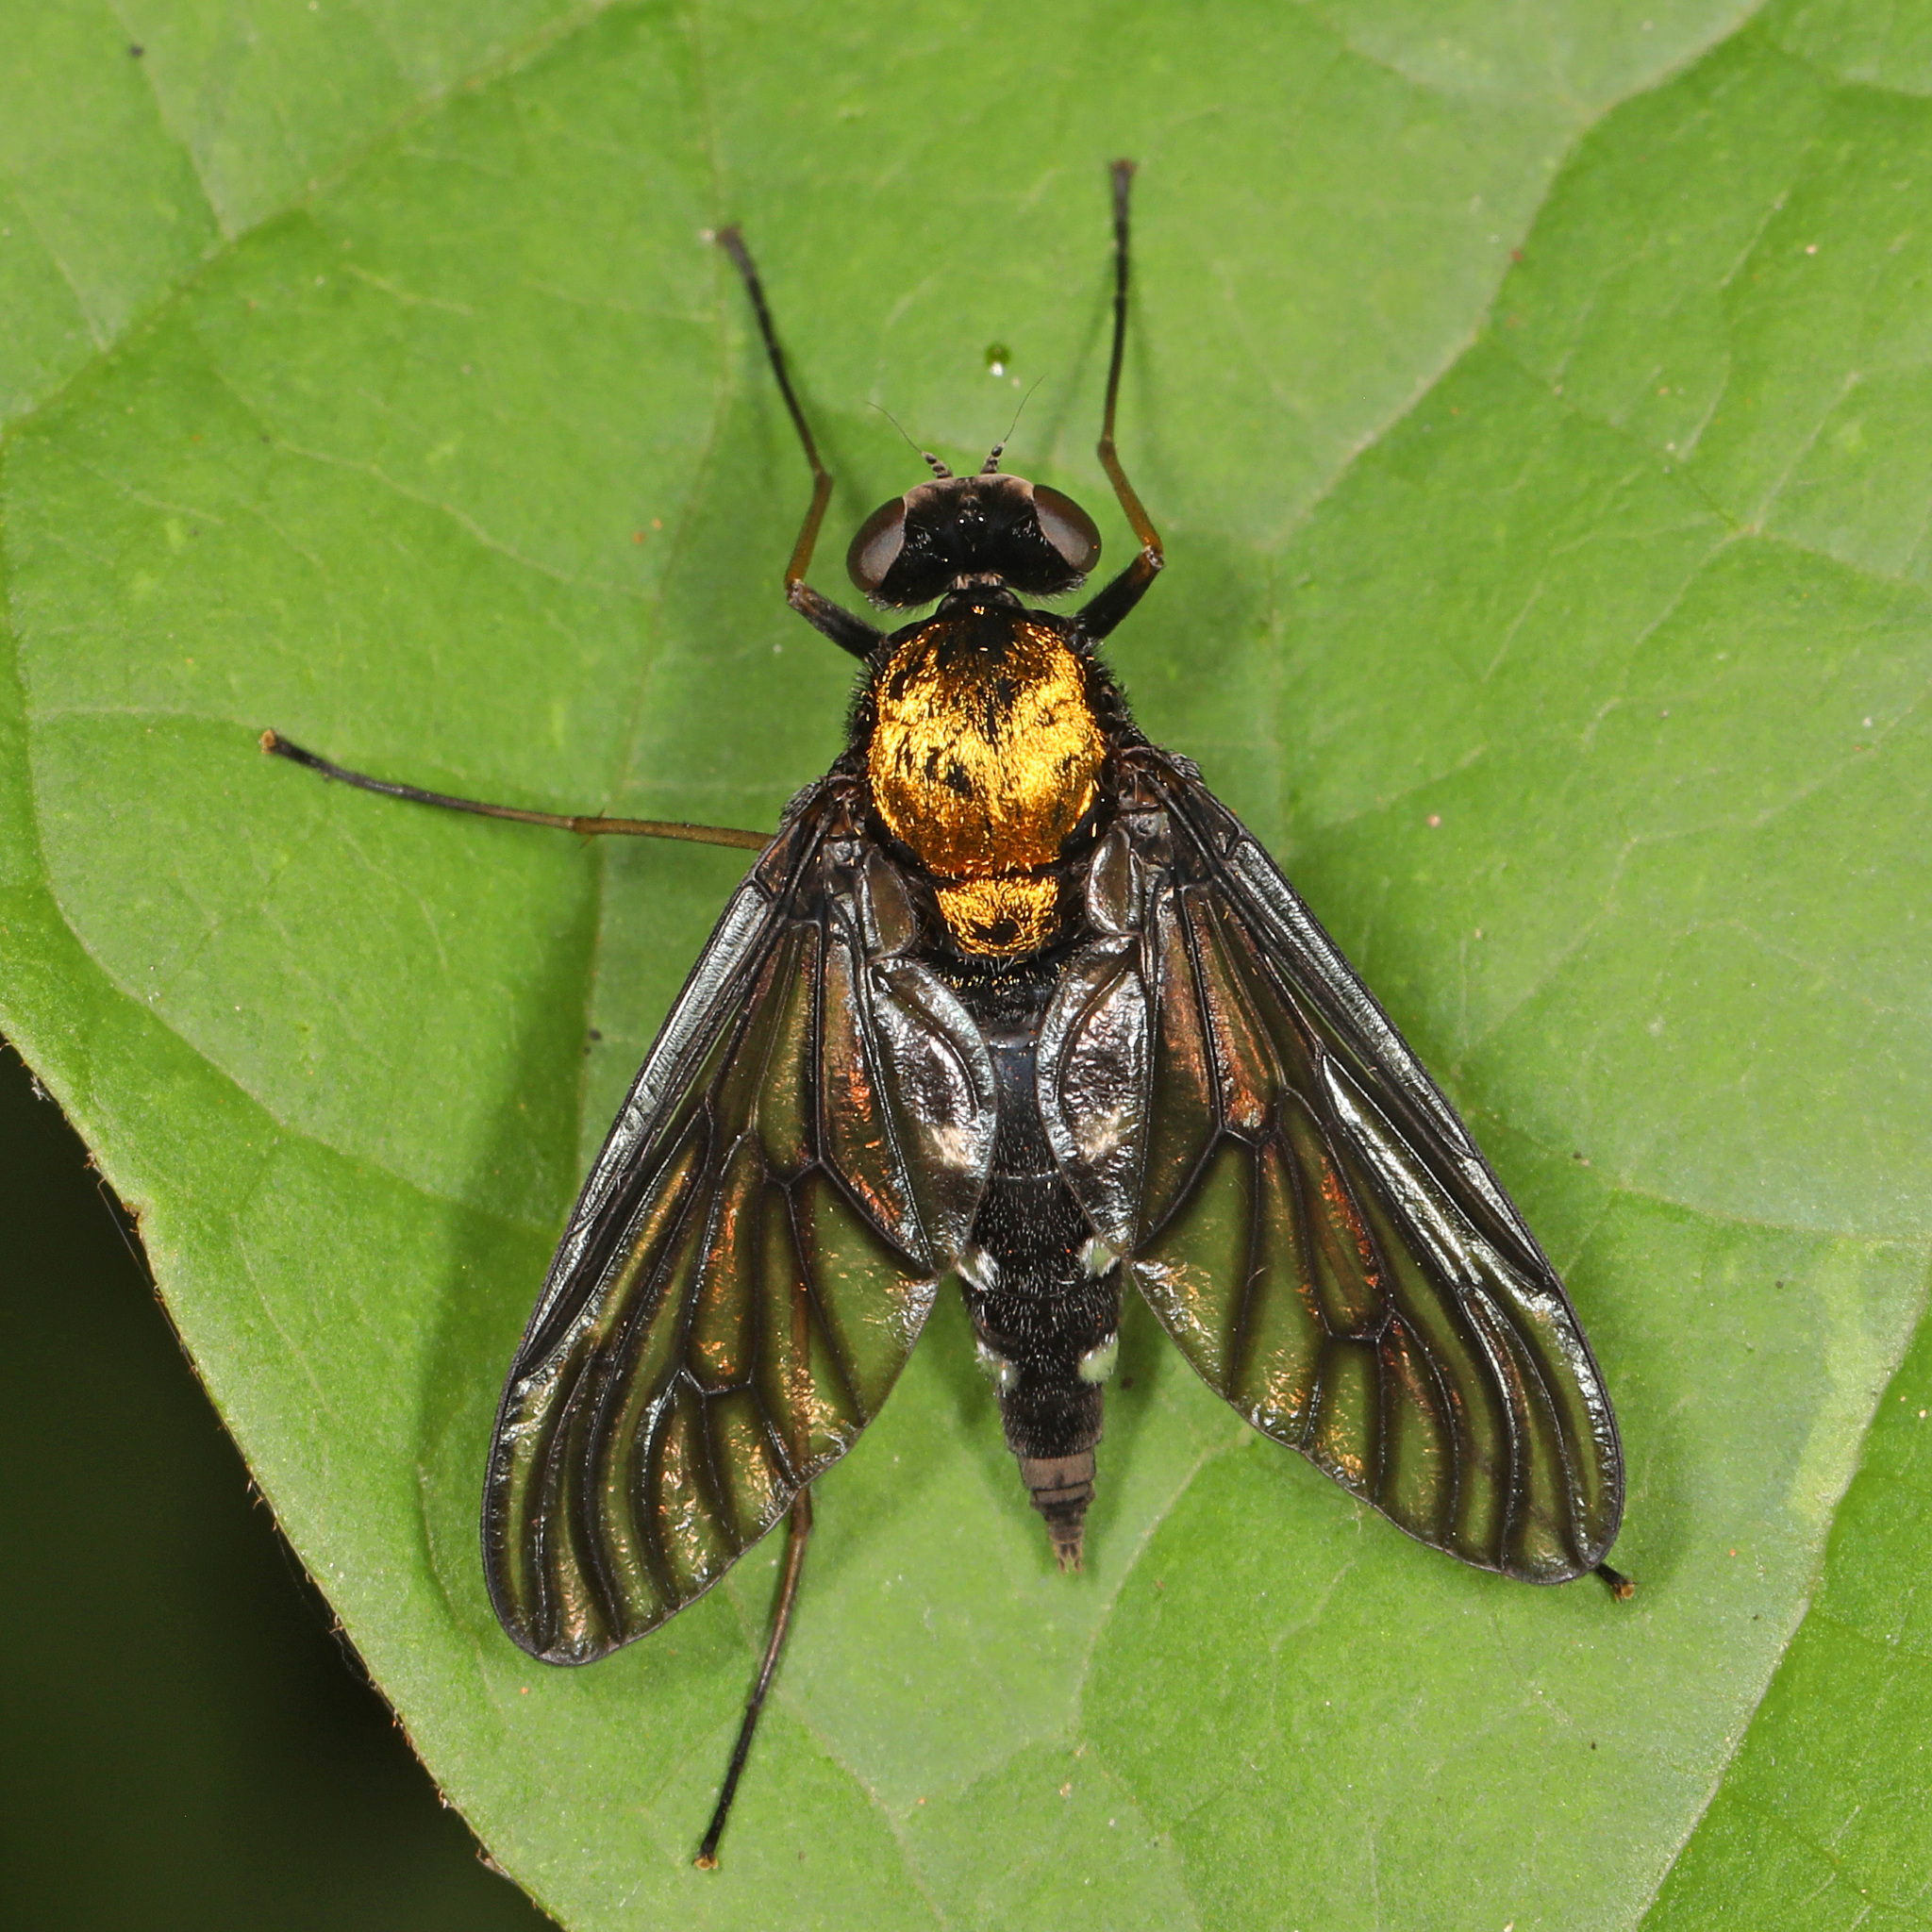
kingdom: Animalia
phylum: Arthropoda
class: Insecta
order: Diptera
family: Rhagionidae
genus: Chrysopilus
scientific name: Chrysopilus thoracicus
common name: Golden-backed snipe fly
